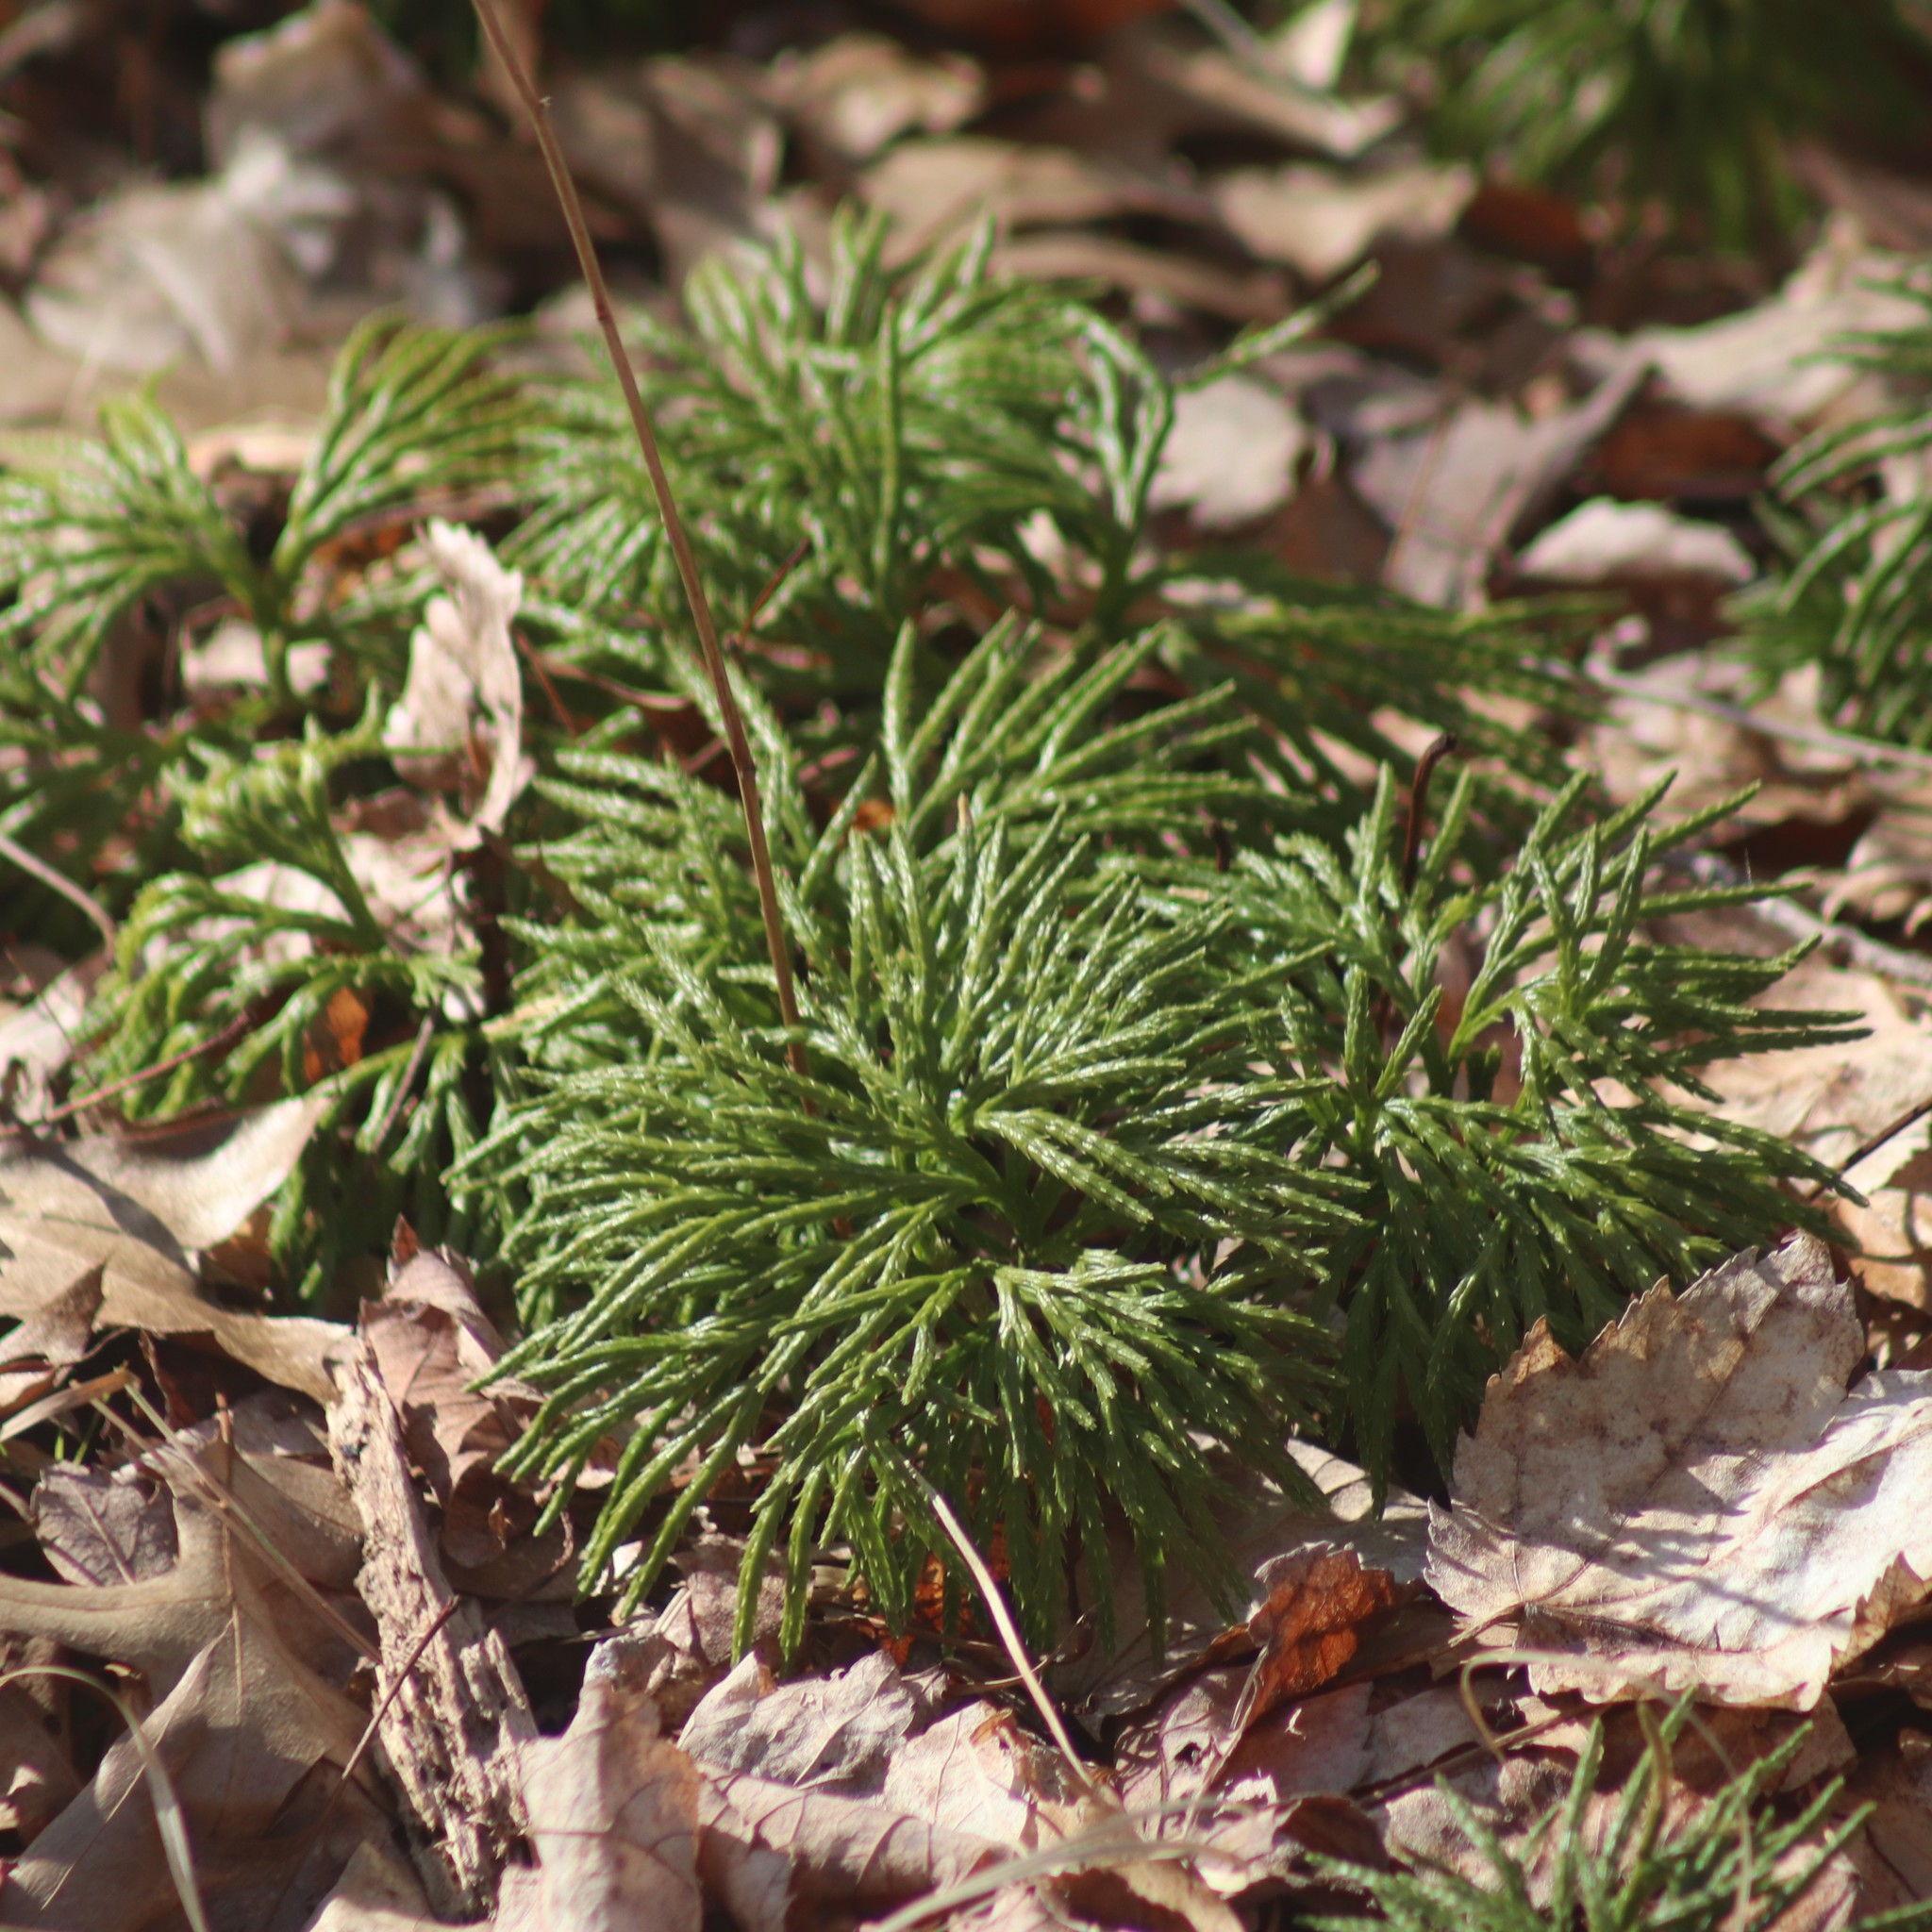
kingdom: Plantae
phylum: Tracheophyta
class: Lycopodiopsida
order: Lycopodiales
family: Lycopodiaceae
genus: Diphasiastrum
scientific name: Diphasiastrum digitatum
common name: Southern running-pine
